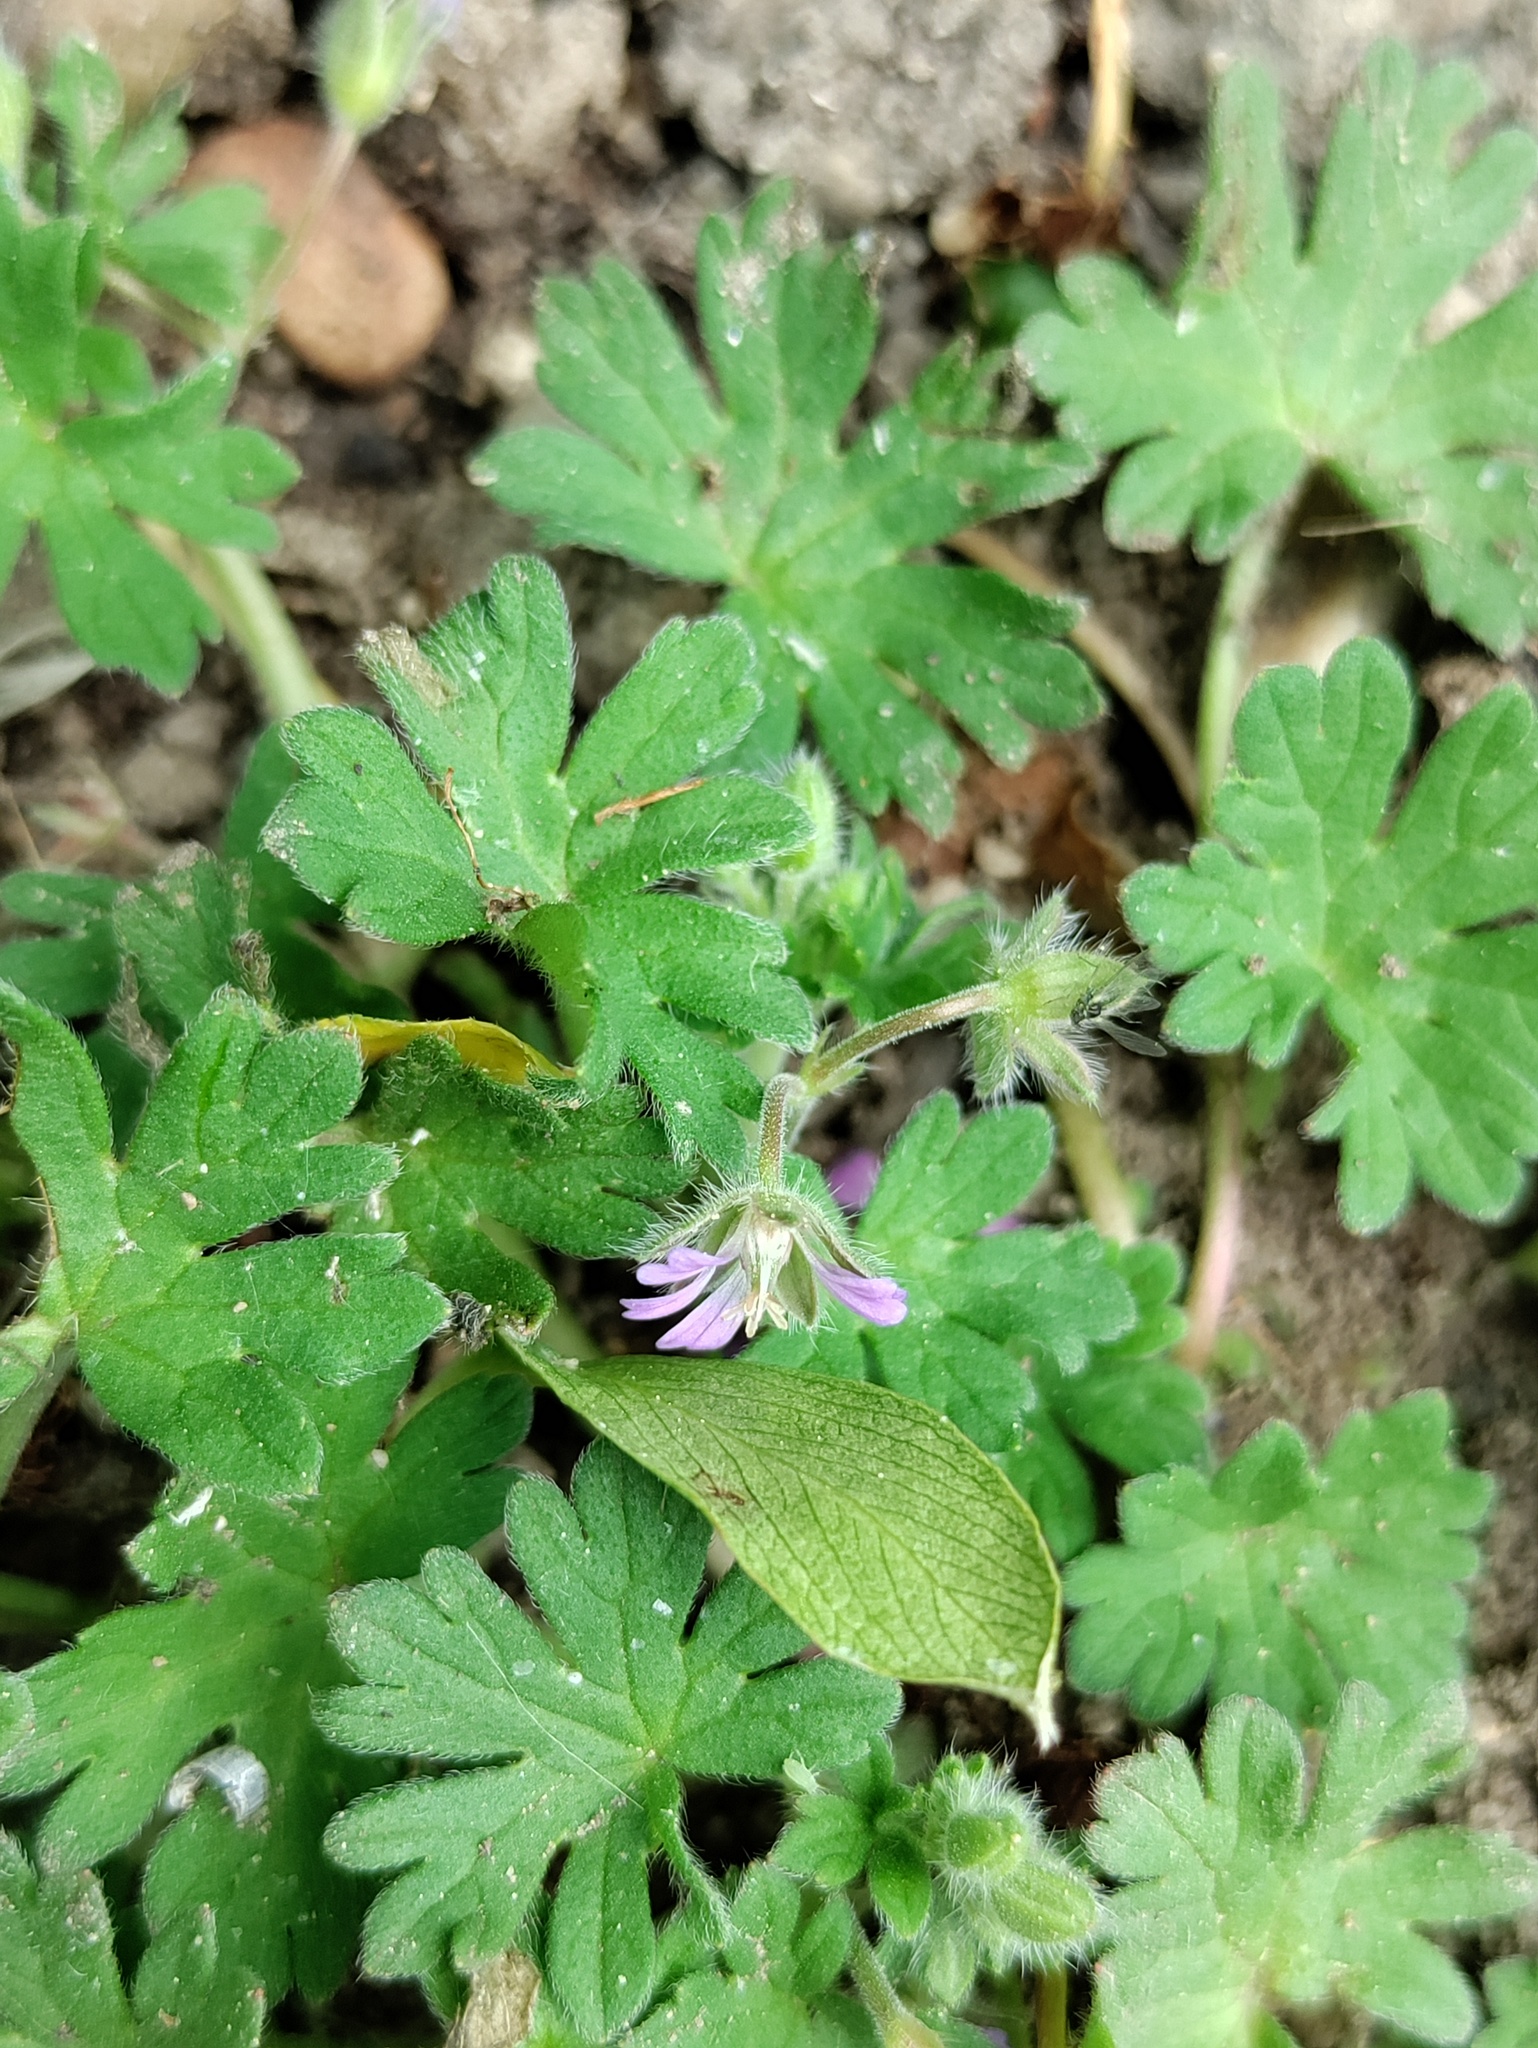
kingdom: Plantae
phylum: Tracheophyta
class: Magnoliopsida
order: Geraniales
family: Geraniaceae
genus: Geranium
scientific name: Geranium pusillum
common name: Small geranium
